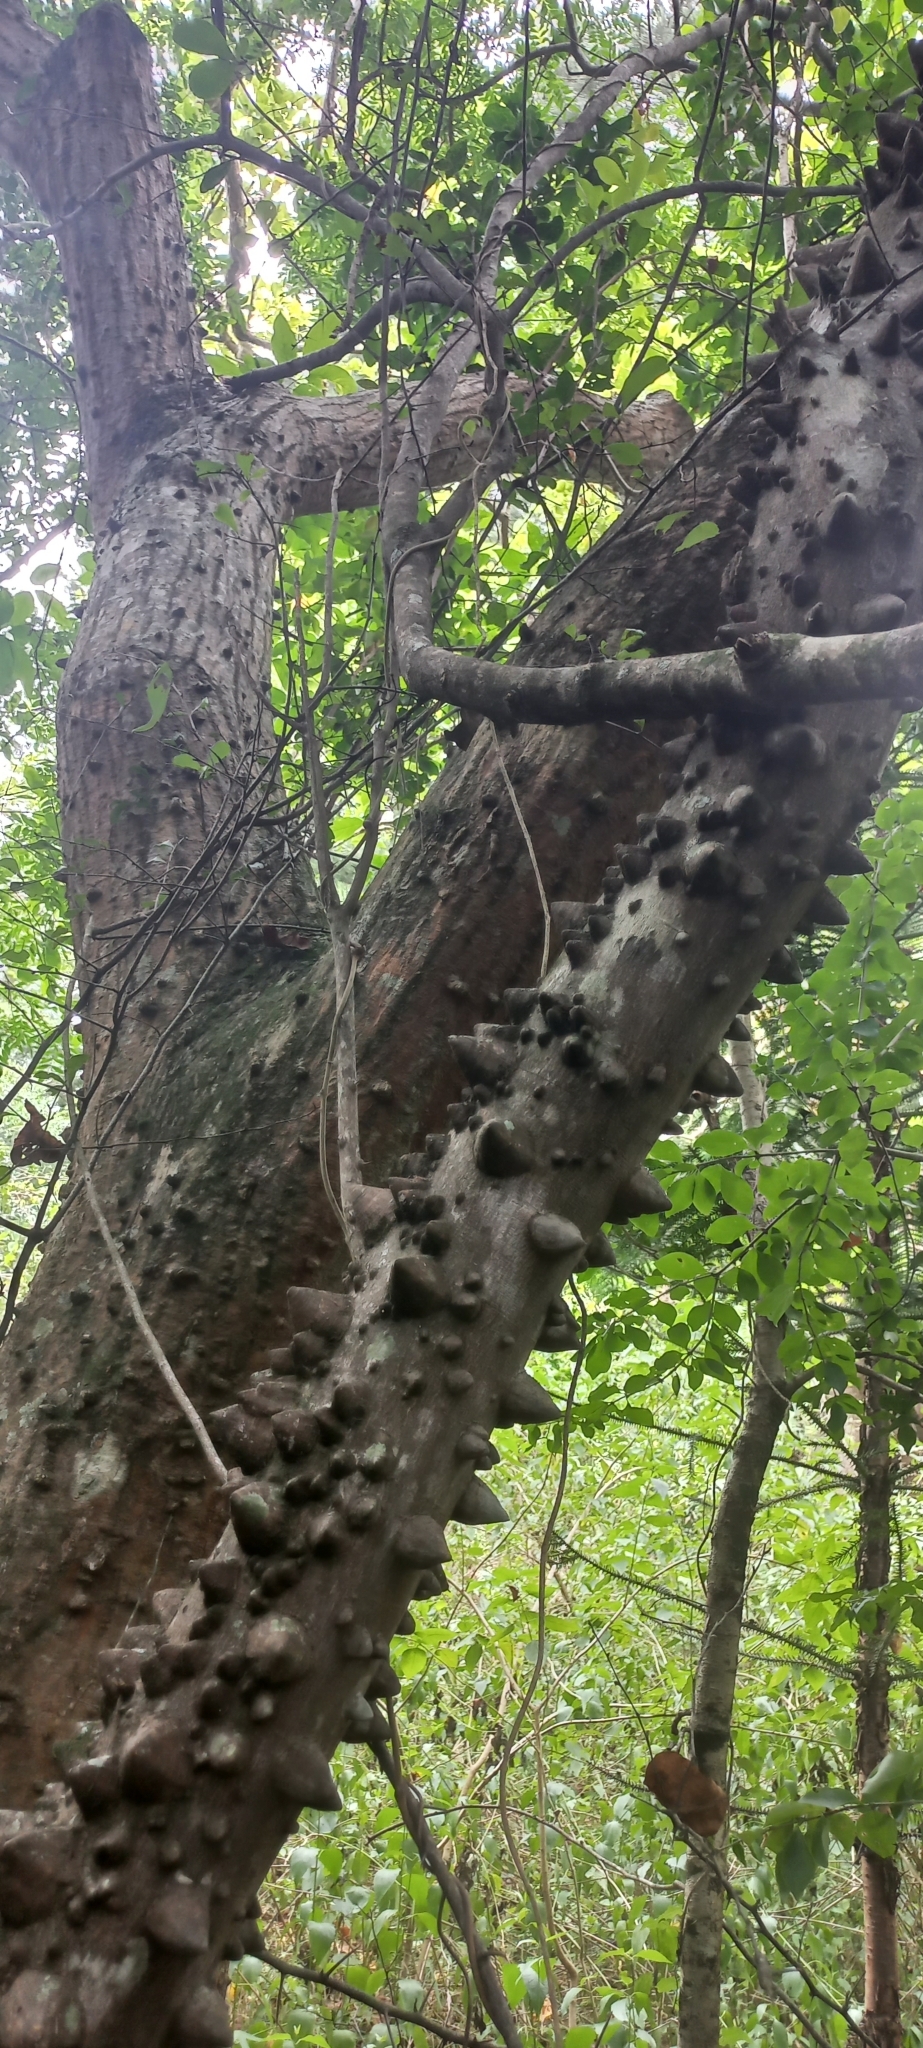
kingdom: Plantae
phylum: Tracheophyta
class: Magnoliopsida
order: Sapindales
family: Rutaceae
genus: Zanthoxylum
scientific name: Zanthoxylum capense
